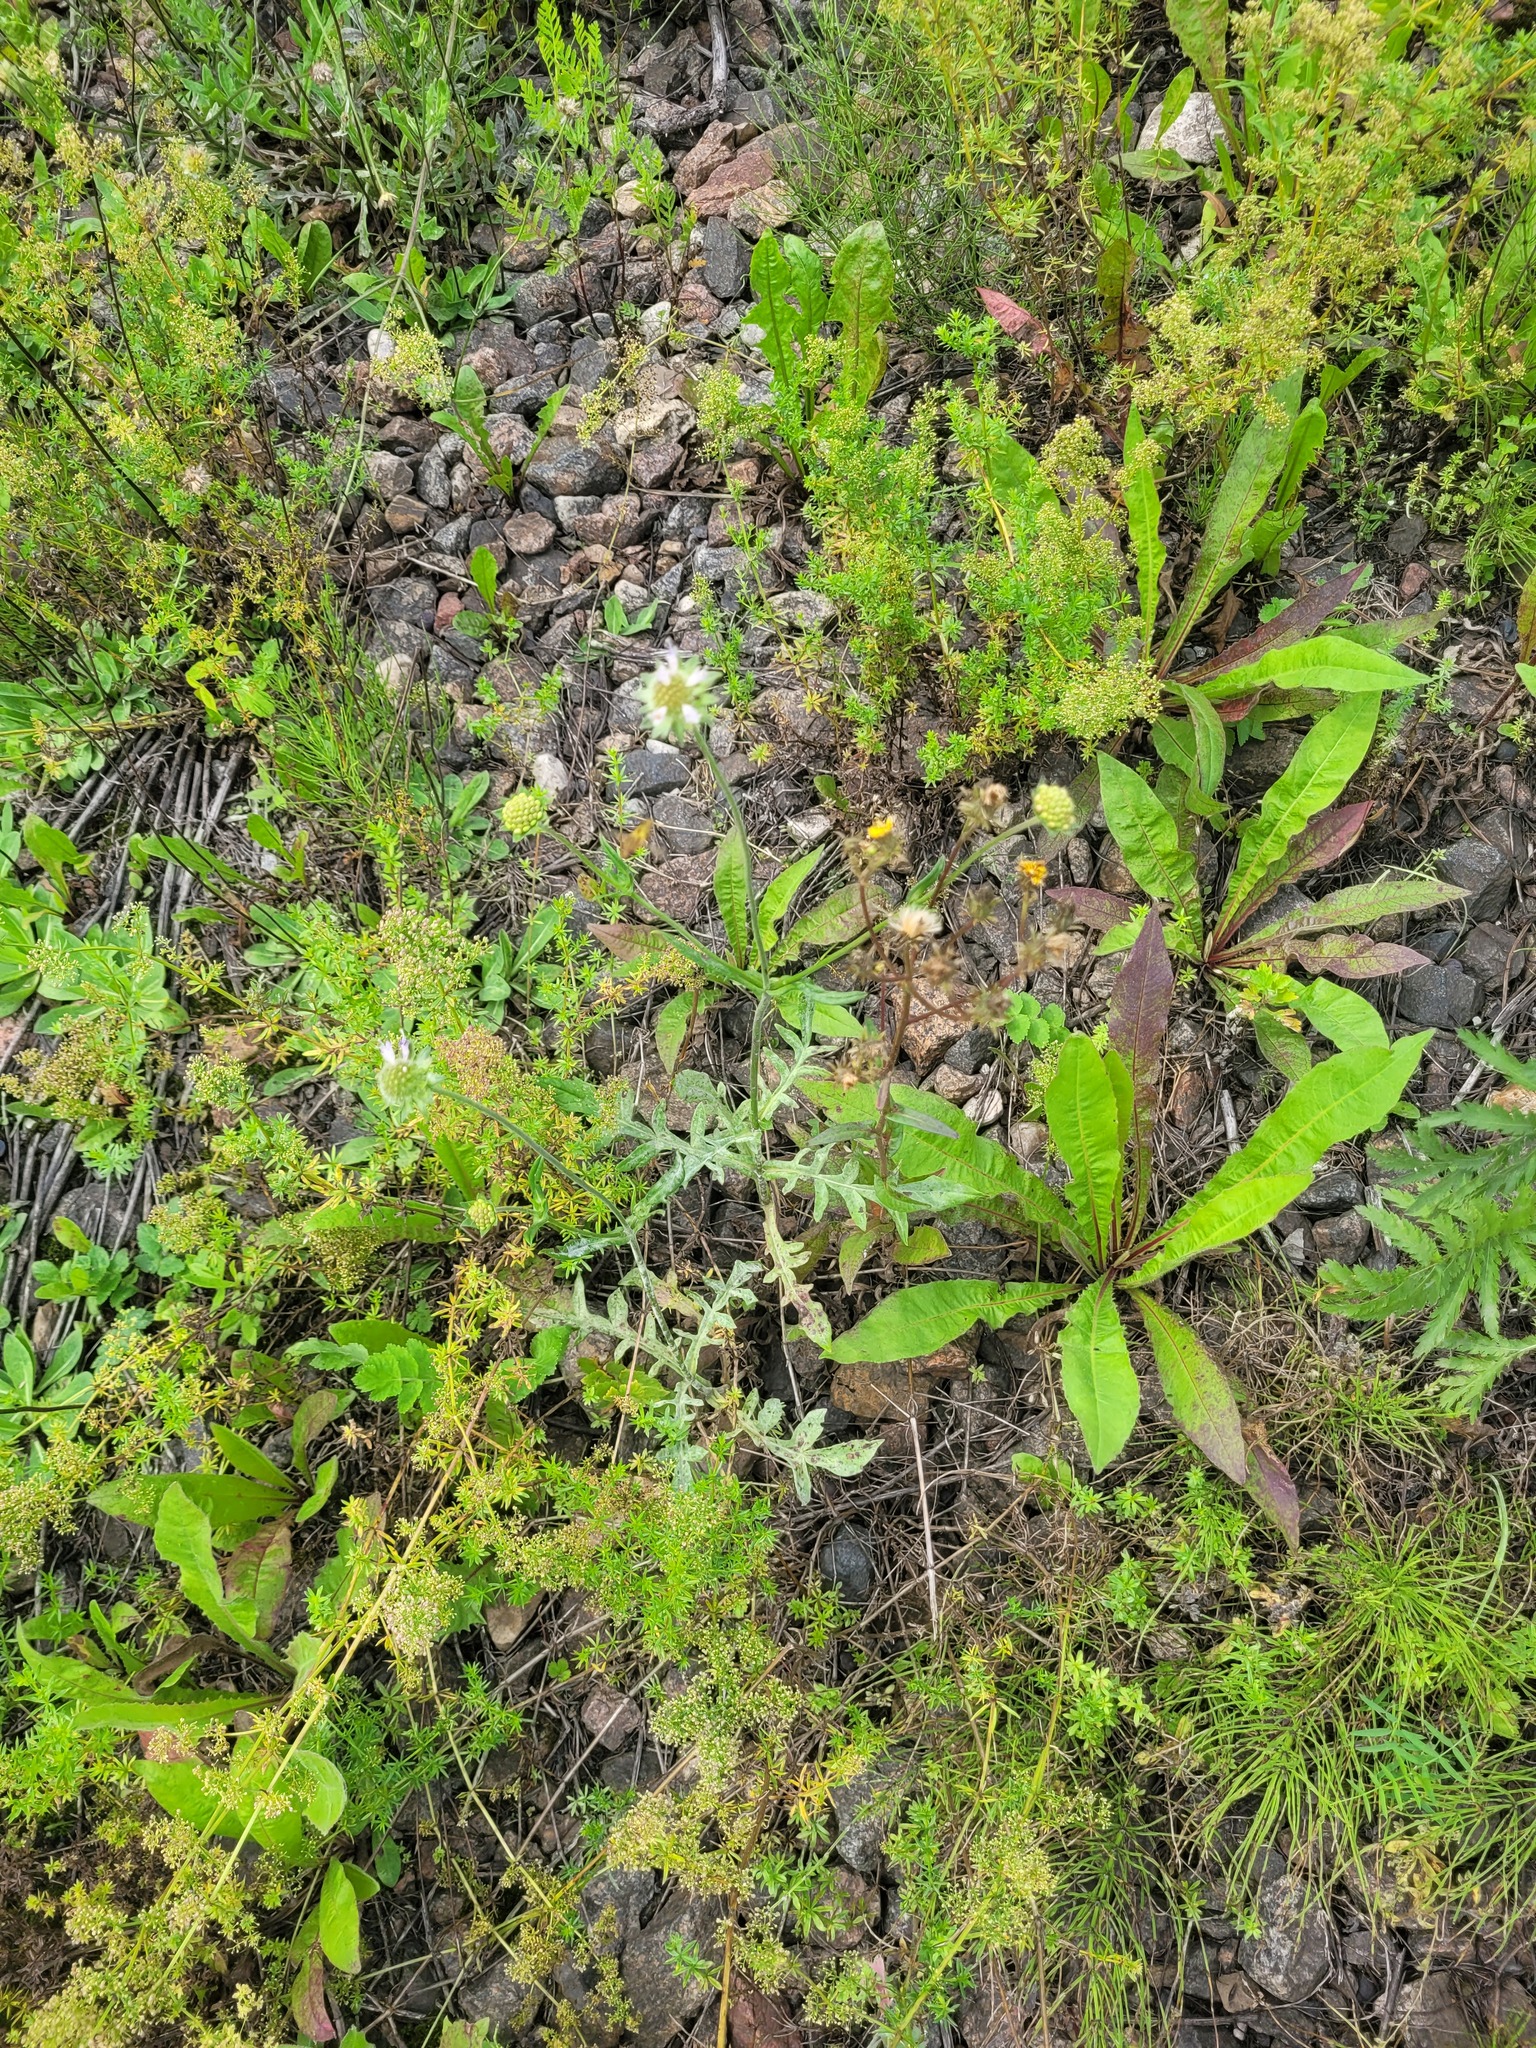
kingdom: Plantae
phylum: Tracheophyta
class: Magnoliopsida
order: Dipsacales
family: Caprifoliaceae
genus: Knautia
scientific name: Knautia arvensis
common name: Field scabiosa
